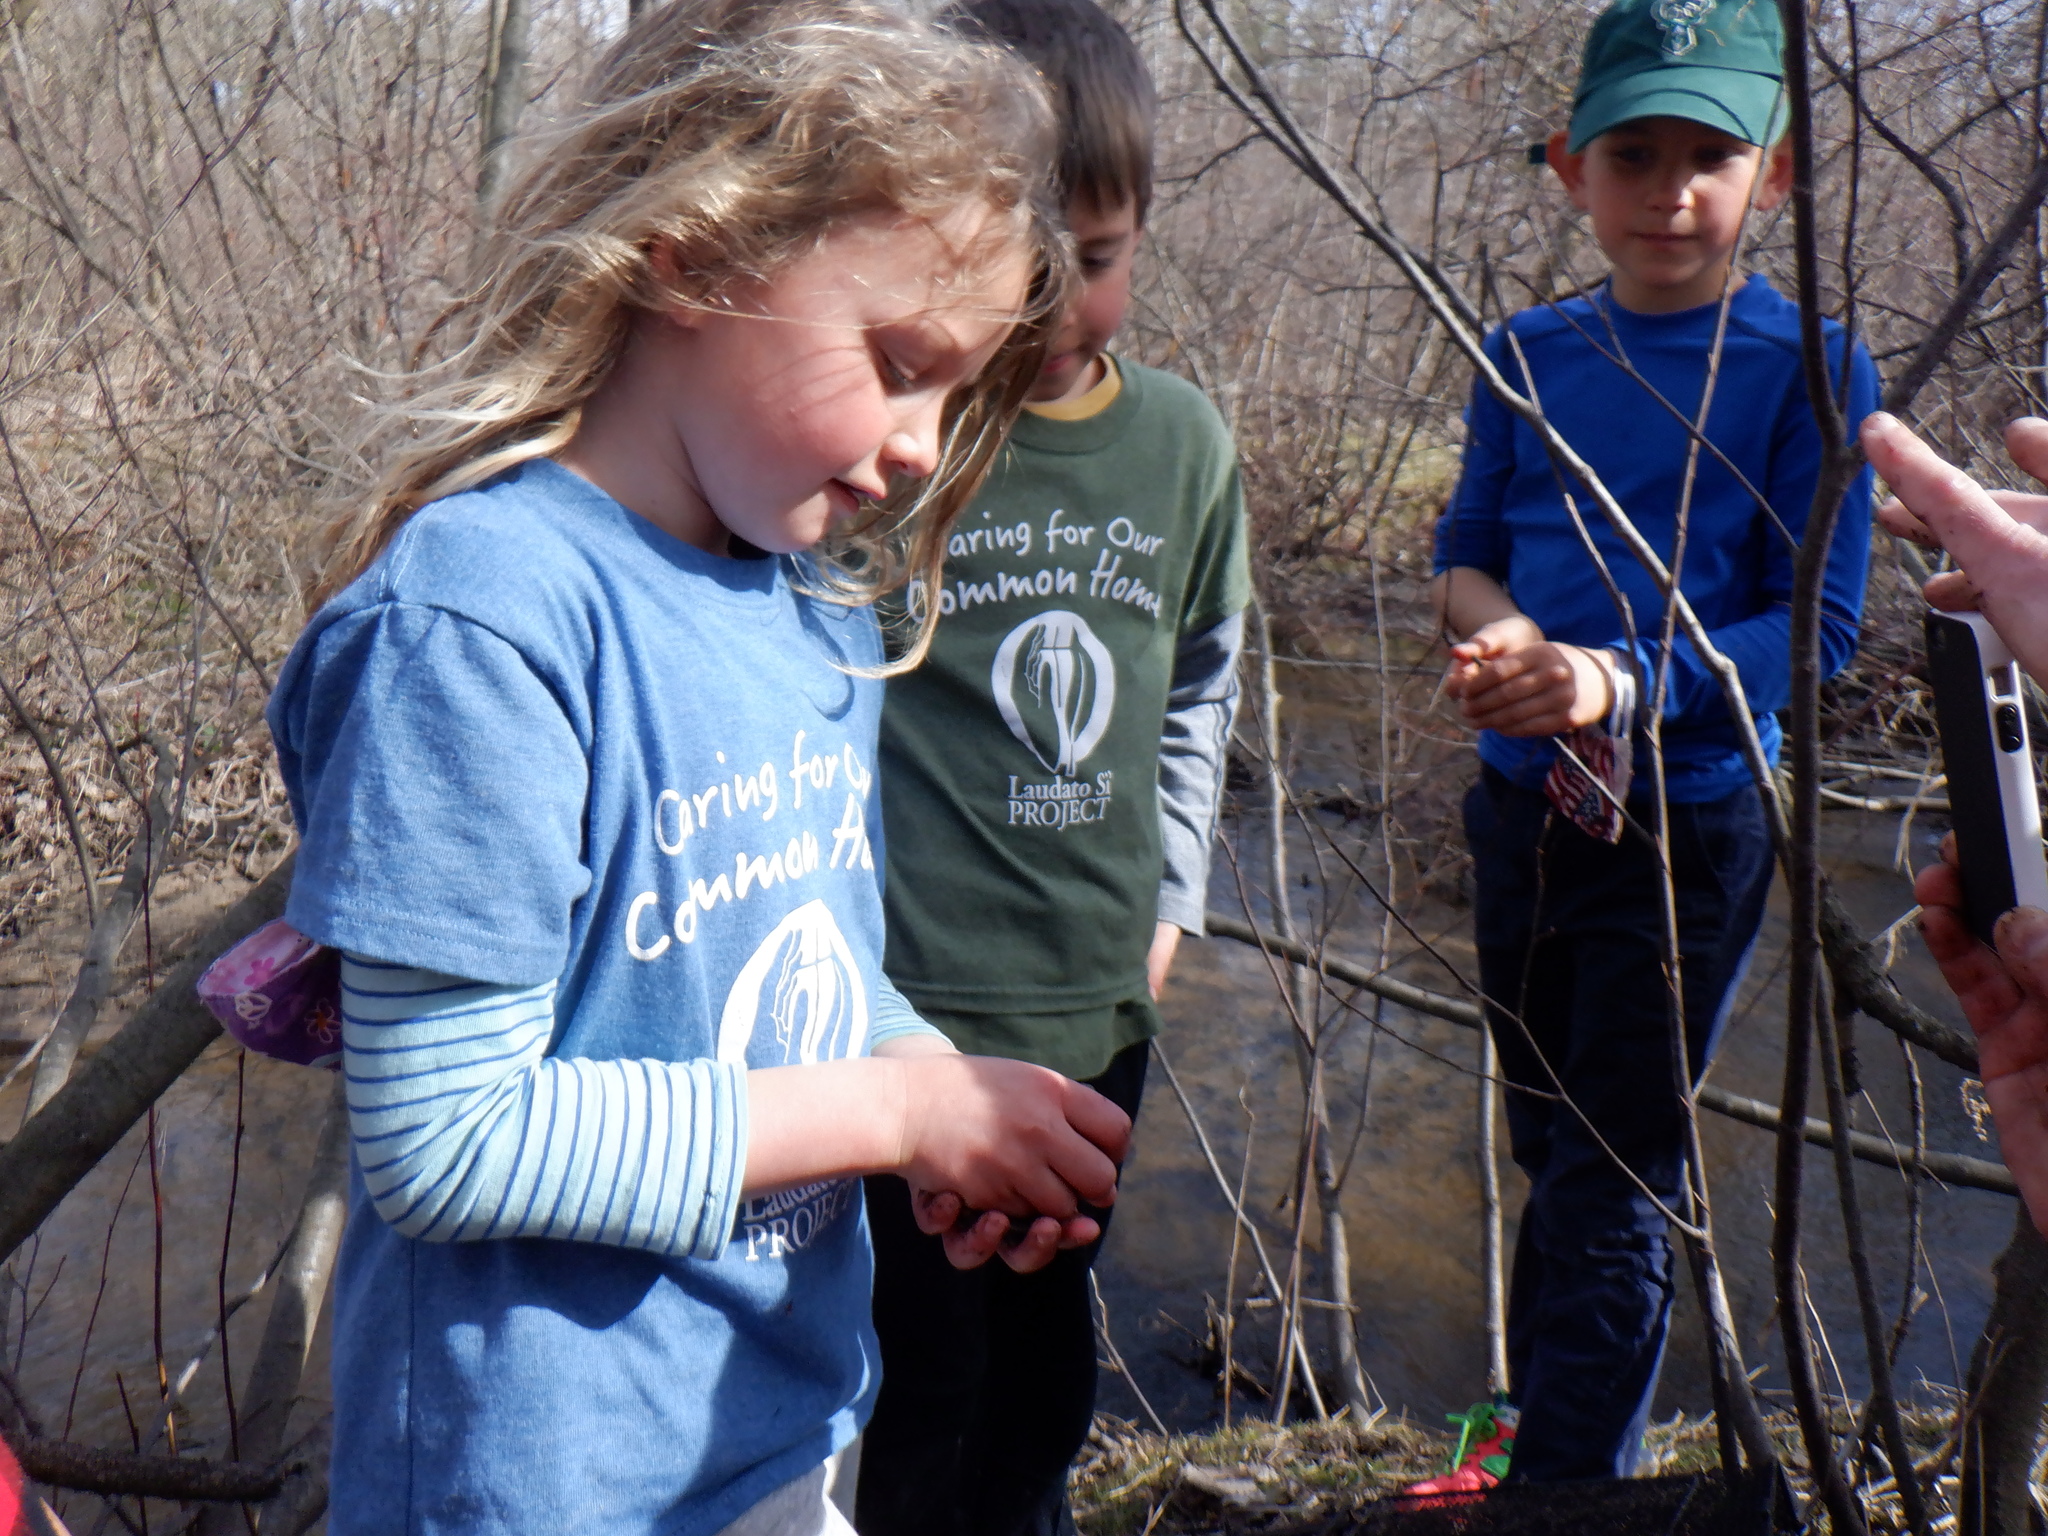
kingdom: Animalia
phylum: Chordata
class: Amphibia
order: Anura
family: Ranidae
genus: Lithobates
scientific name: Lithobates catesbeianus
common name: American bullfrog
